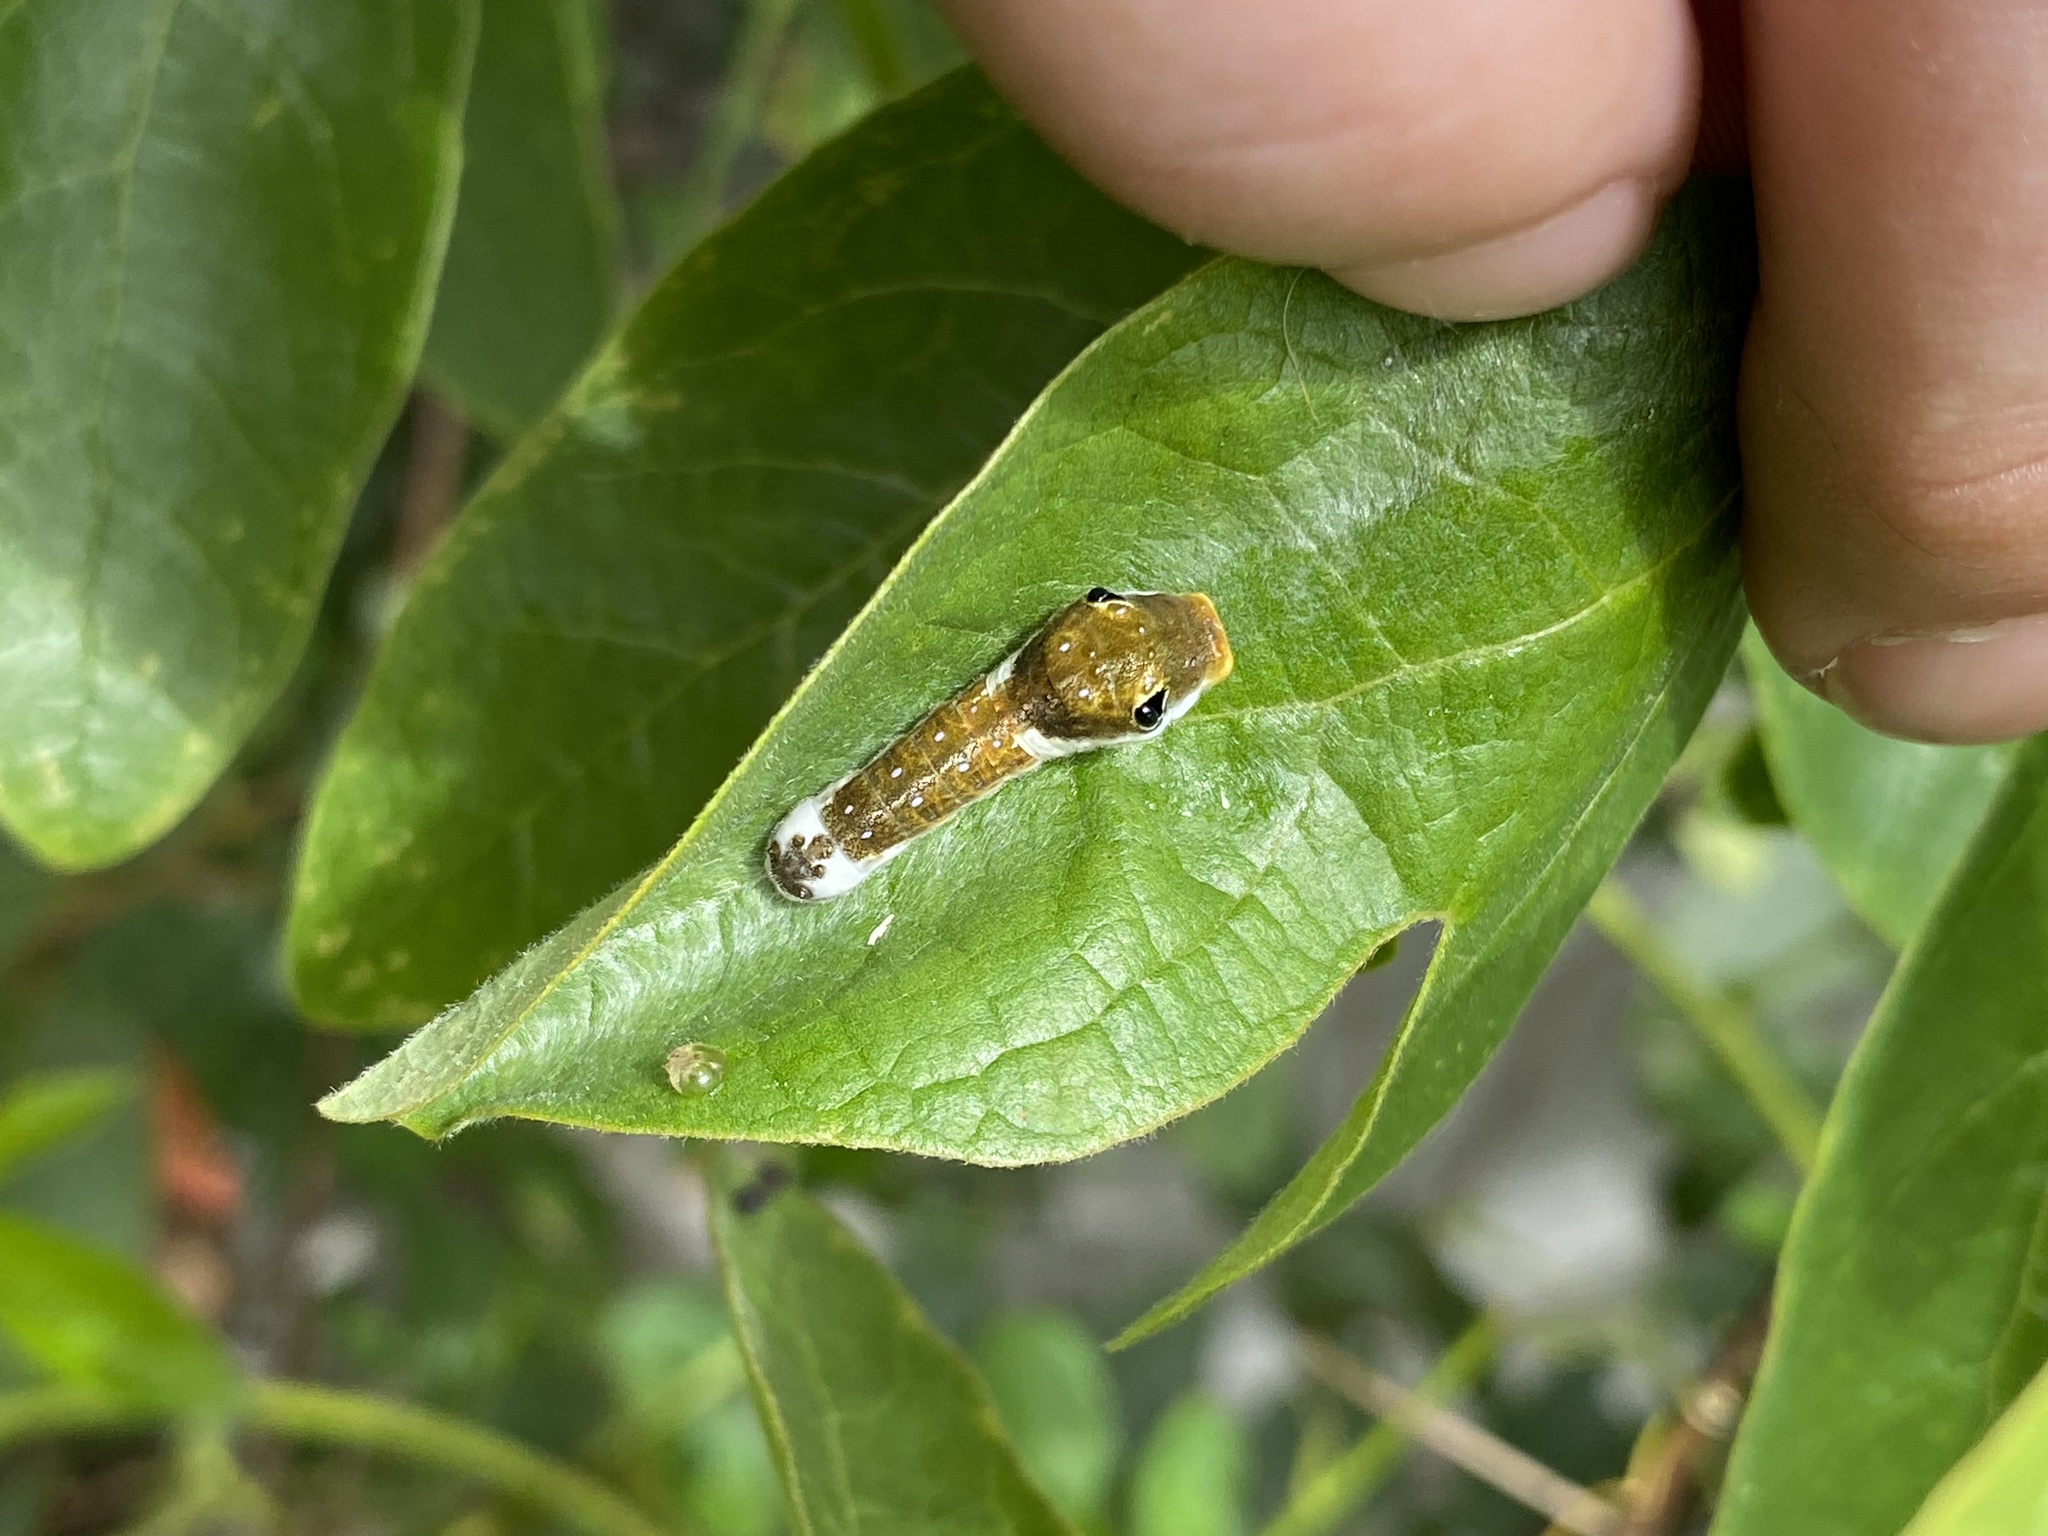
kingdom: Animalia
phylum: Arthropoda
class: Insecta
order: Lepidoptera
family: Papilionidae
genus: Papilio
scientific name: Papilio troilus
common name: Spicebush swallowtail
